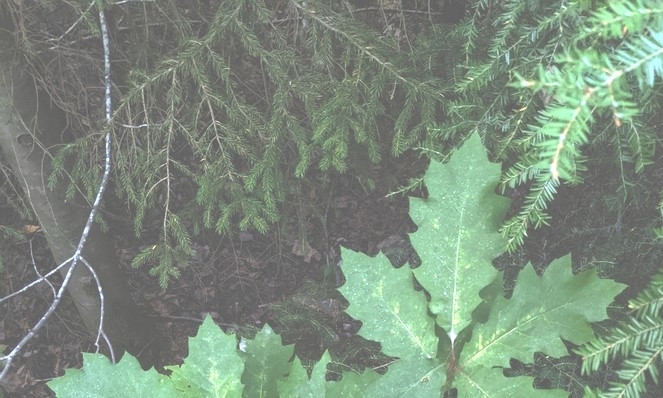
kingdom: Plantae
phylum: Tracheophyta
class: Pinopsida
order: Pinales
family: Pinaceae
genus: Picea
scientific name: Picea rubens
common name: Red spruce
